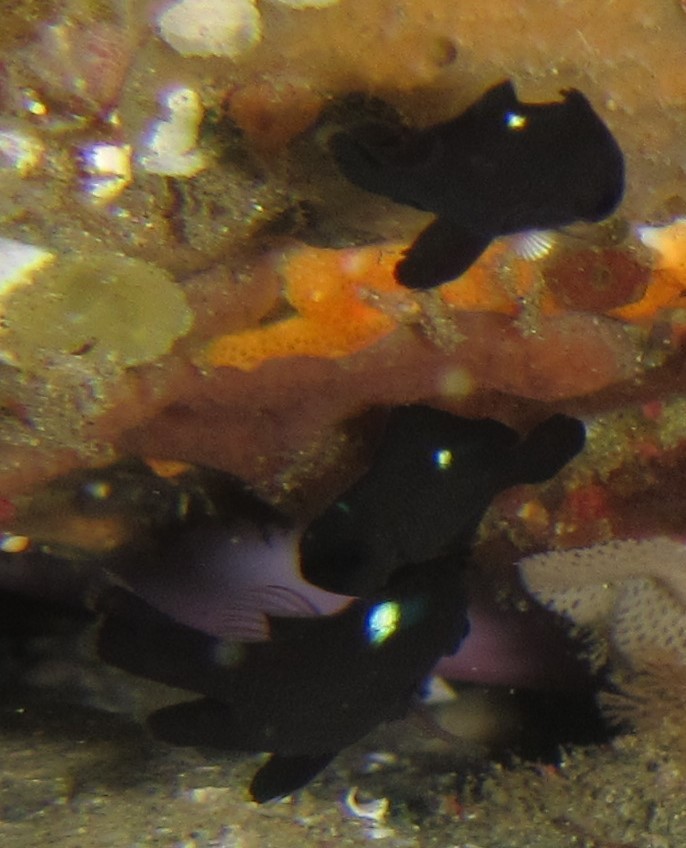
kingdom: Animalia
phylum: Chordata
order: Perciformes
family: Pomacentridae
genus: Dascyllus
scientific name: Dascyllus trimaculatus
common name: Threespot dascyllus
